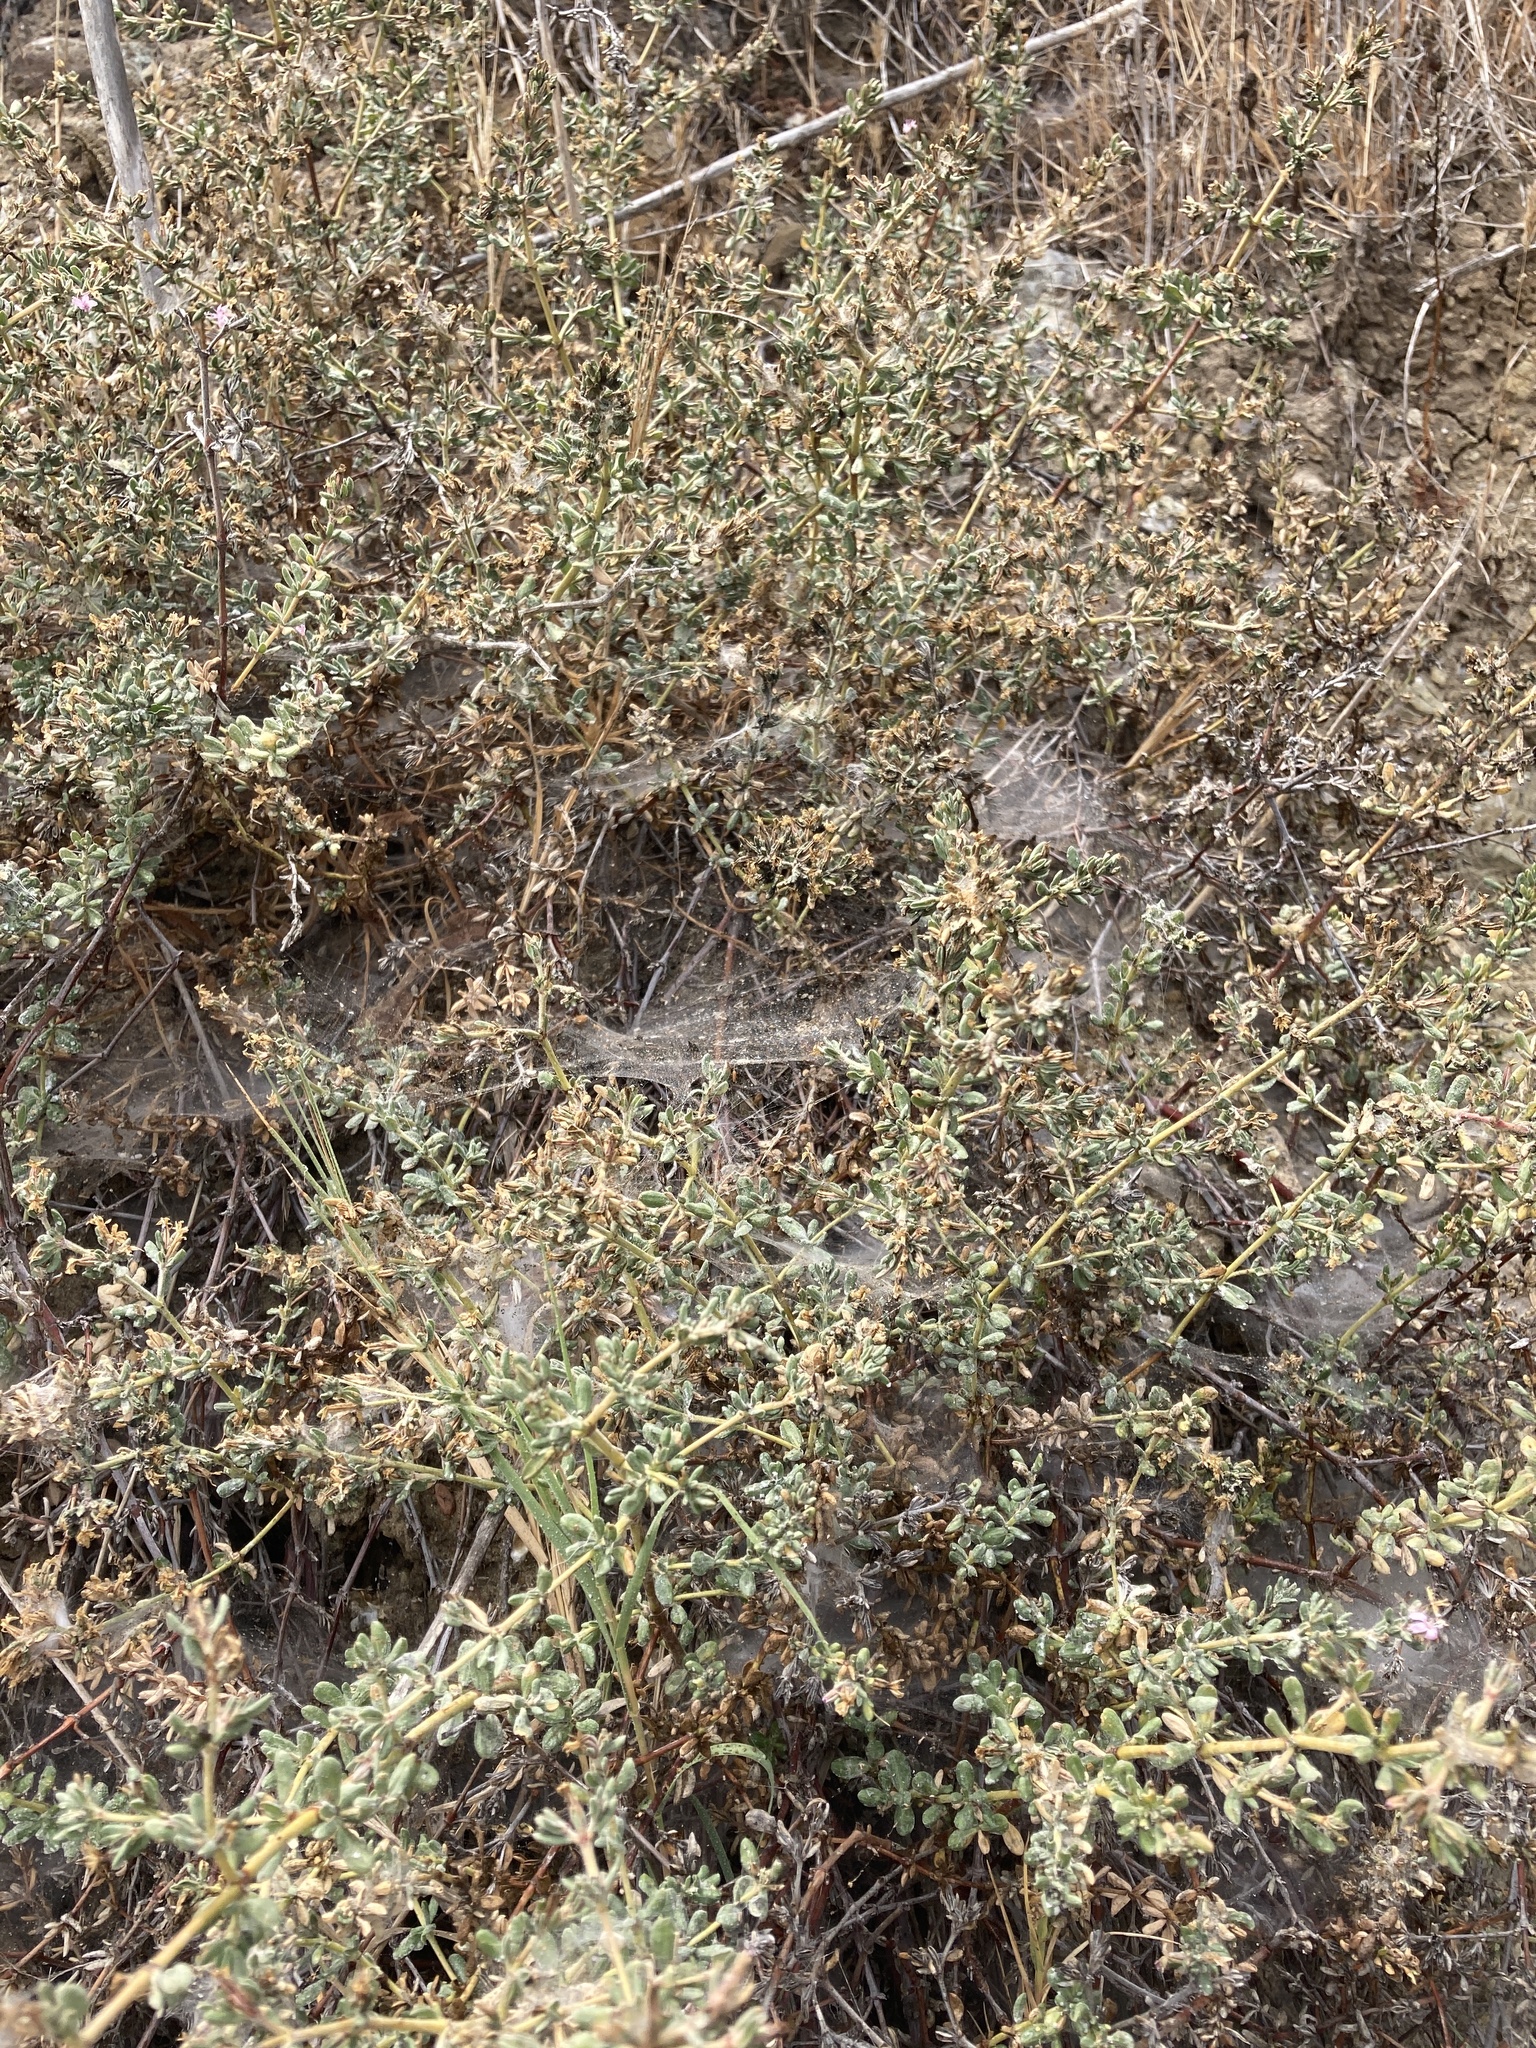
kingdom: Plantae
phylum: Tracheophyta
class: Magnoliopsida
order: Caryophyllales
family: Frankeniaceae
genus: Frankenia
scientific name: Frankenia salina
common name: Alkali seaheath
